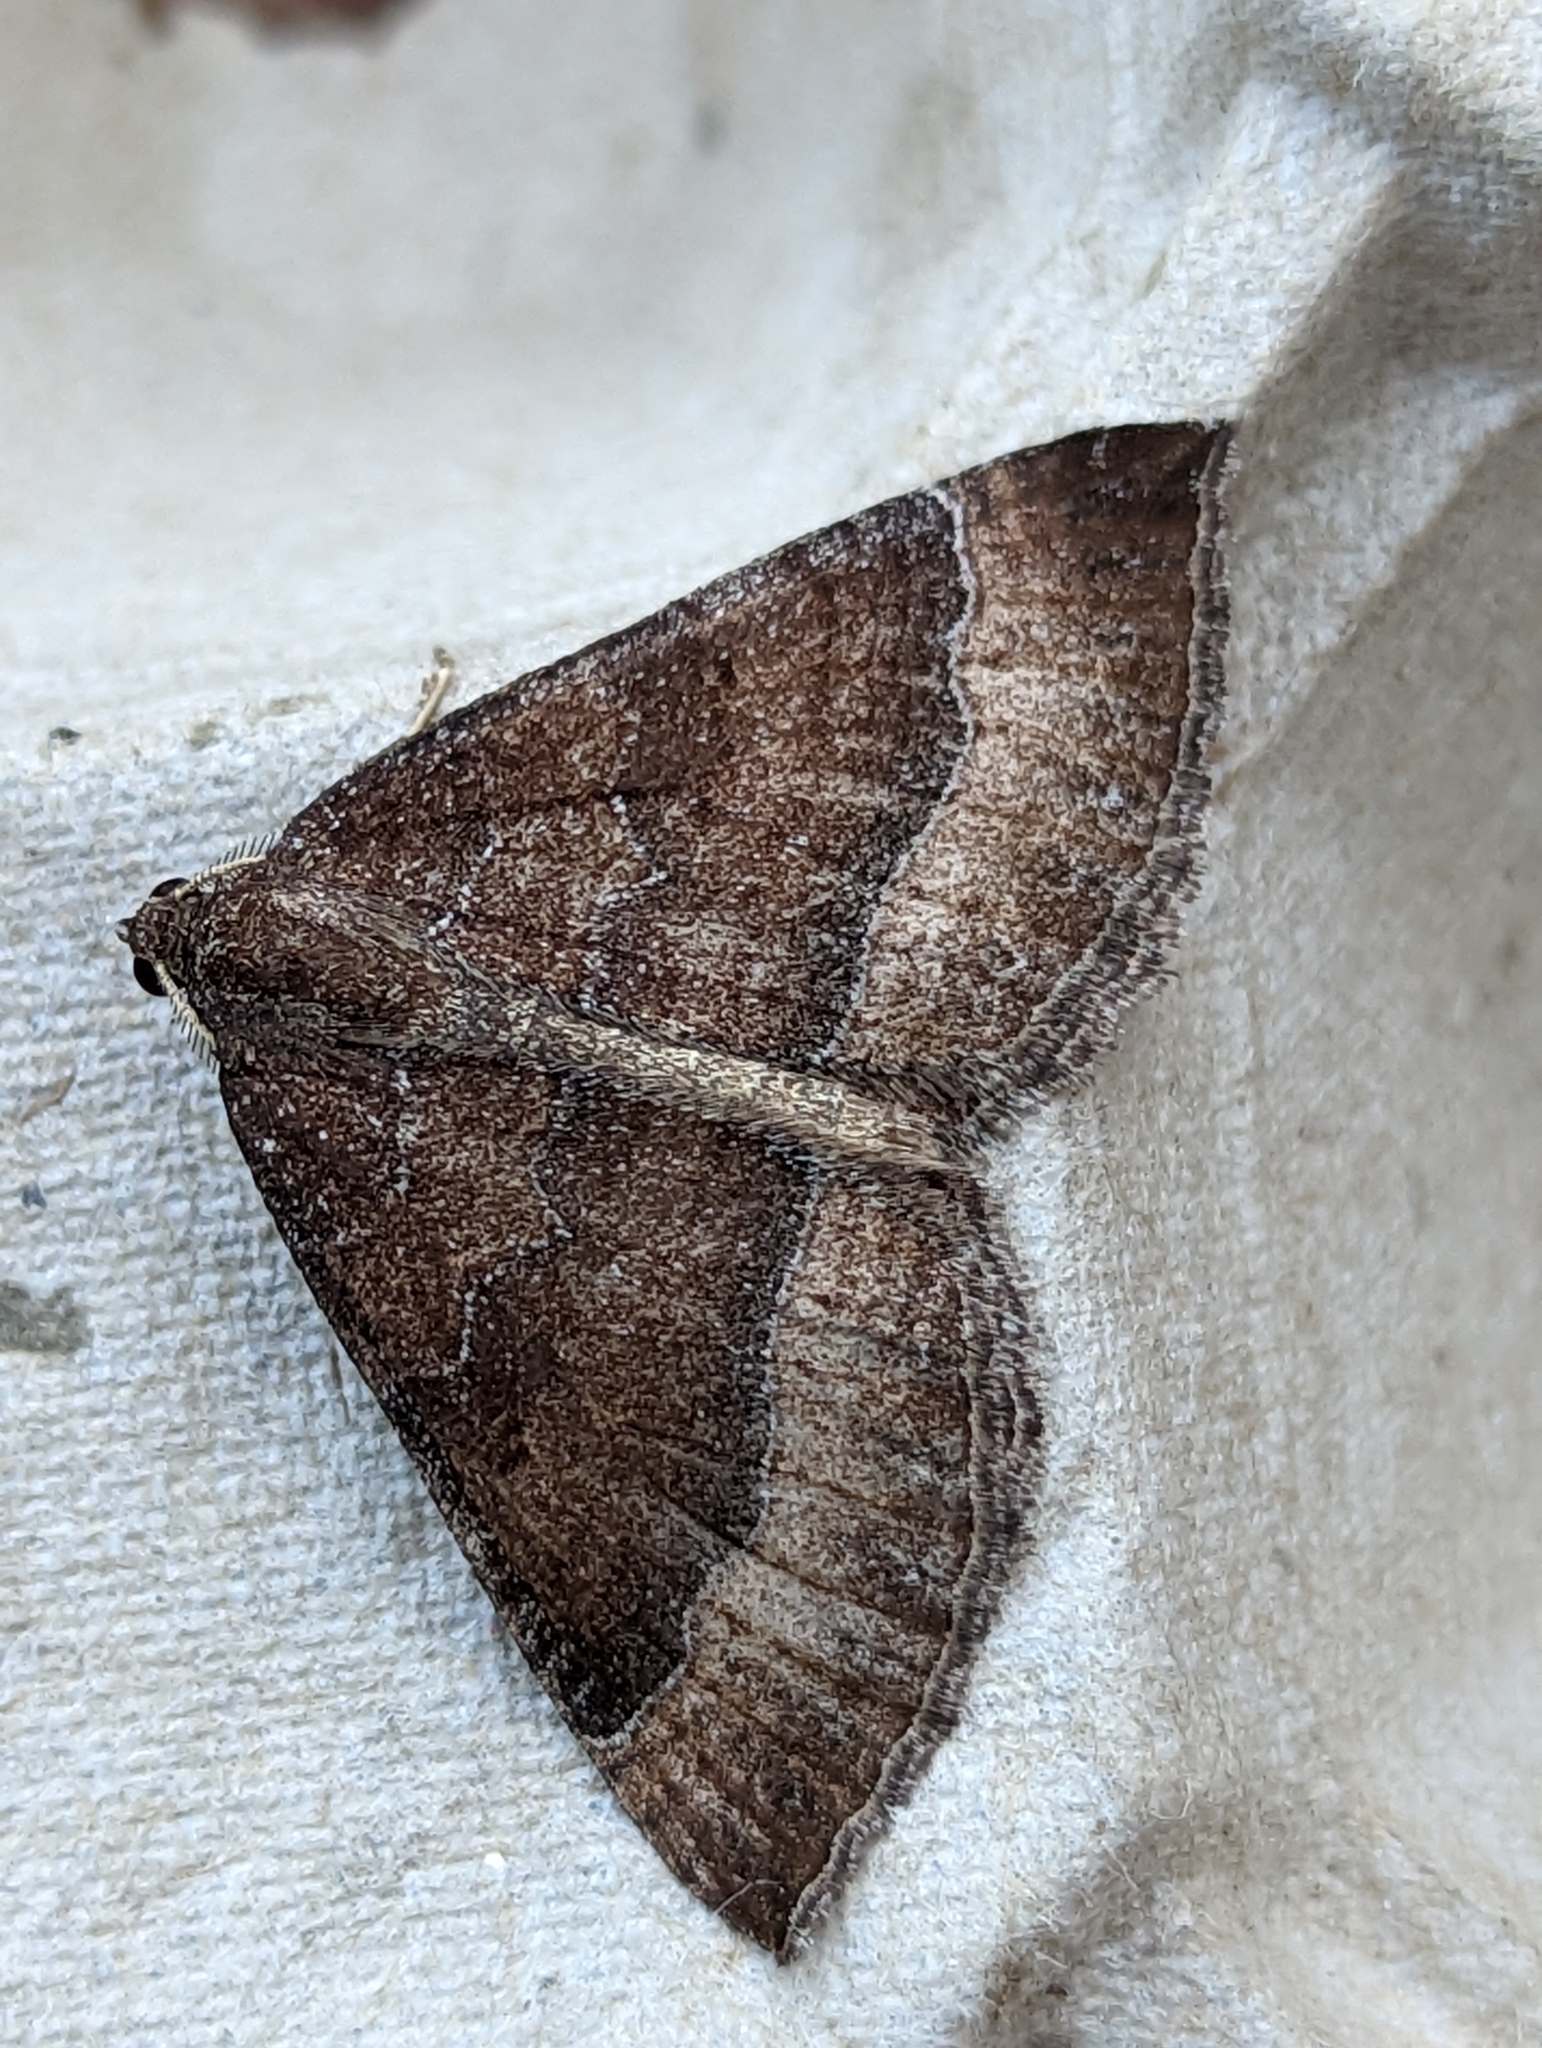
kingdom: Animalia
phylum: Arthropoda
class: Insecta
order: Lepidoptera
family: Geometridae
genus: Larentia
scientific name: Larentia clavaria
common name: Mallow
